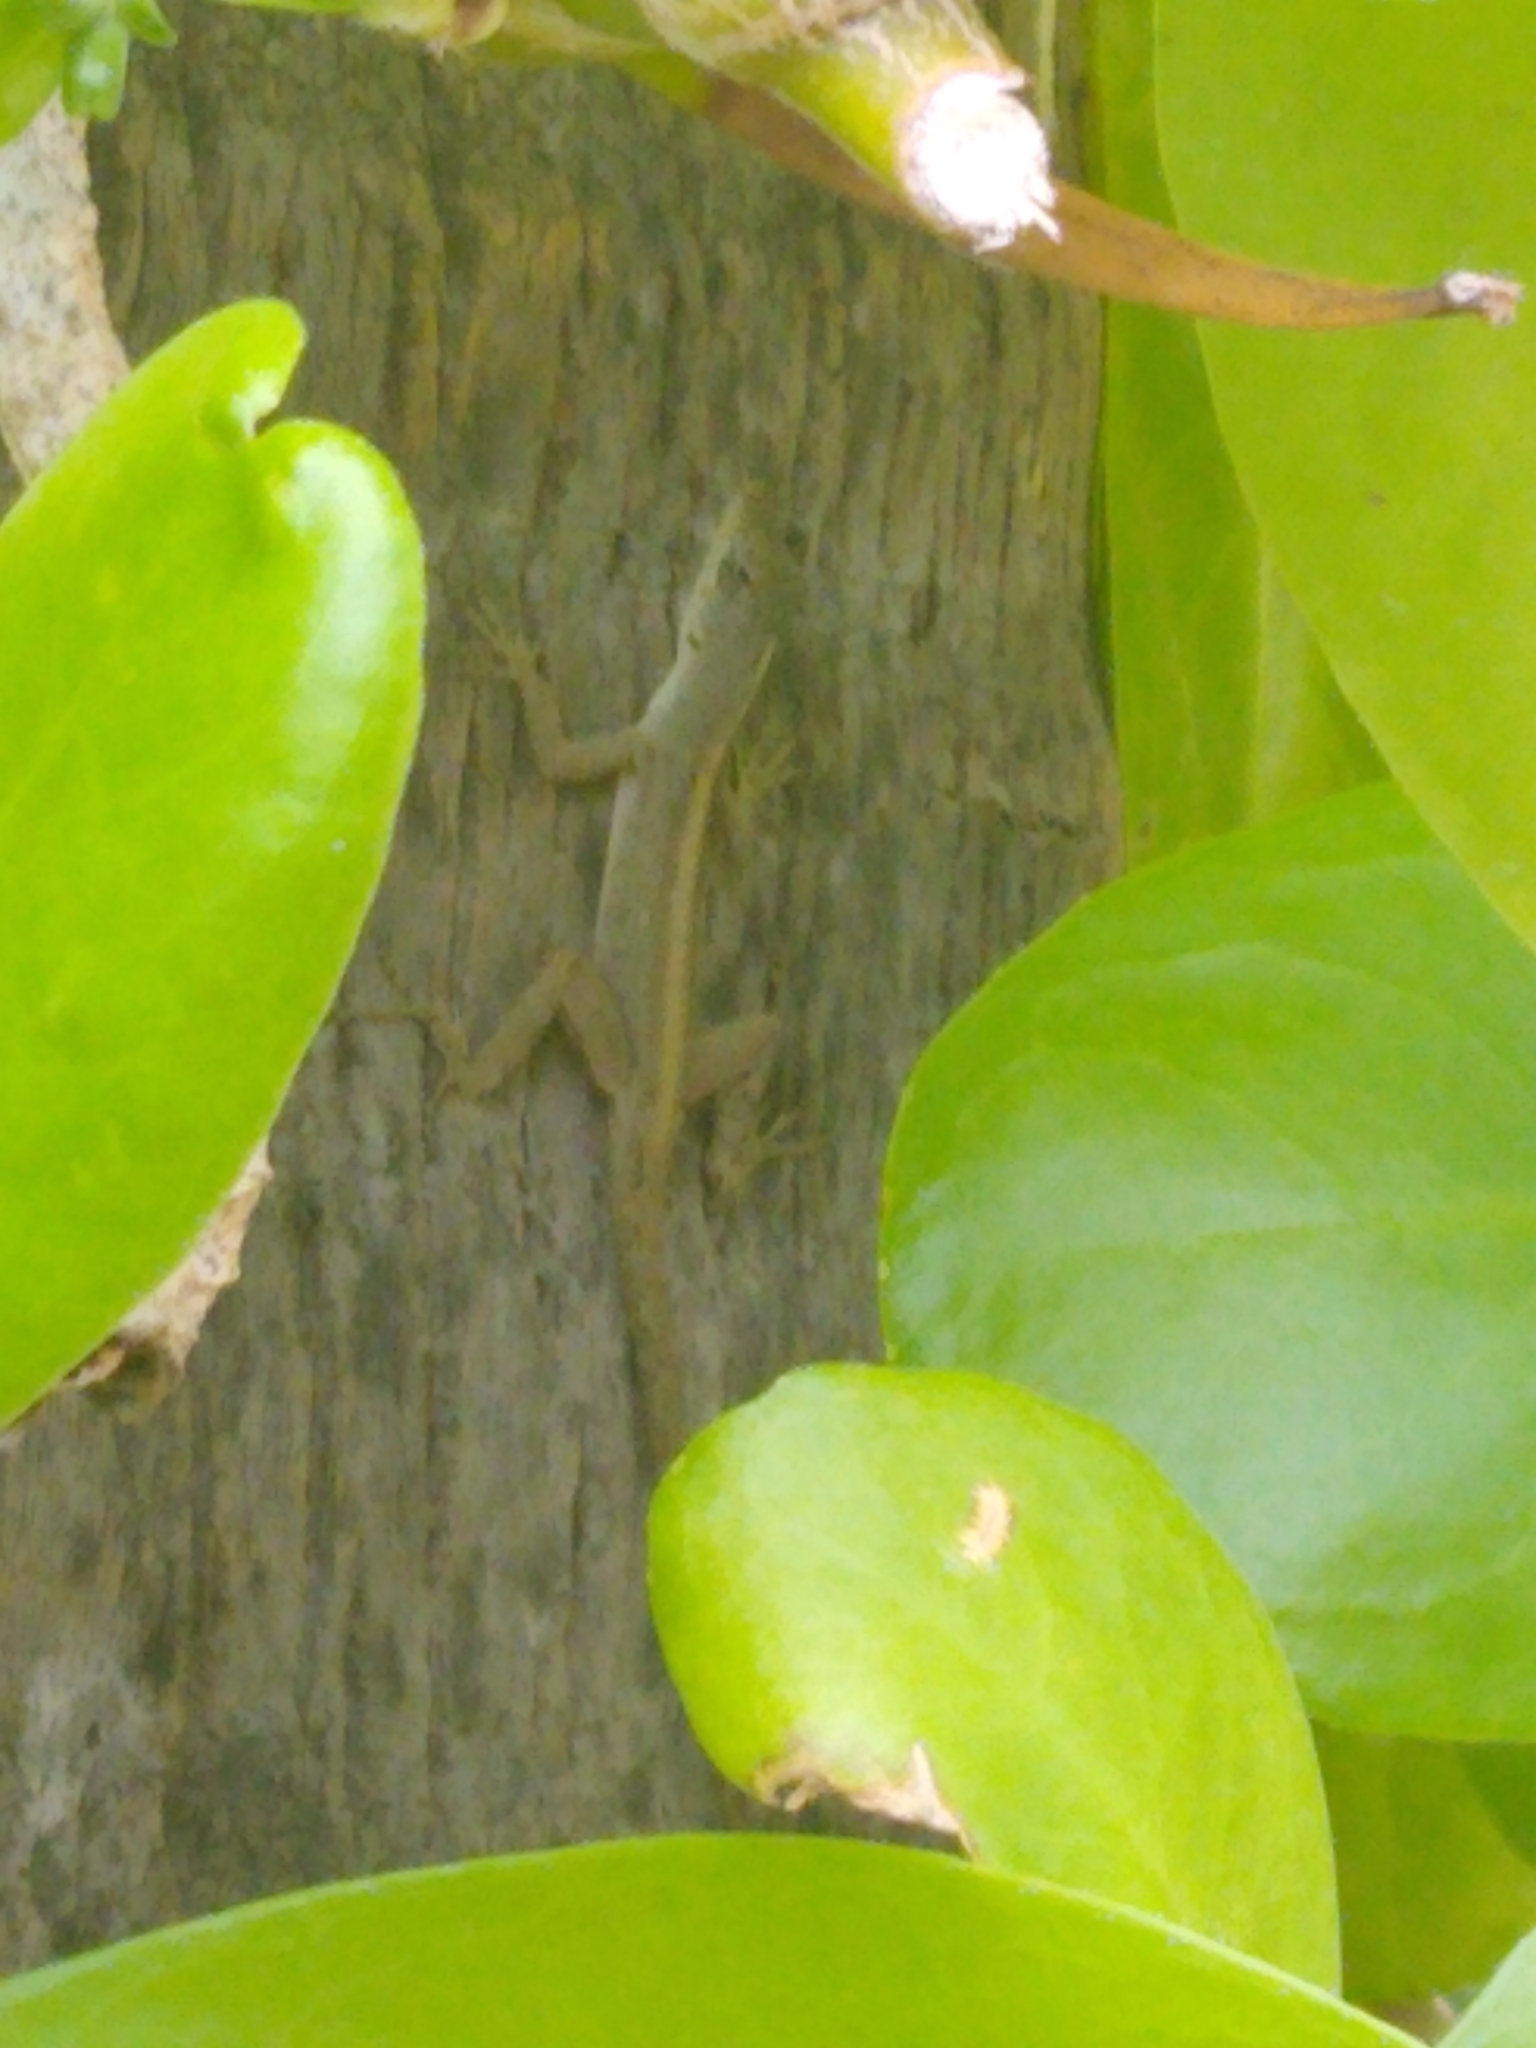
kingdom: Animalia
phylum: Chordata
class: Squamata
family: Dactyloidae
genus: Anolis
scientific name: Anolis sagrei
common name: Brown anole
